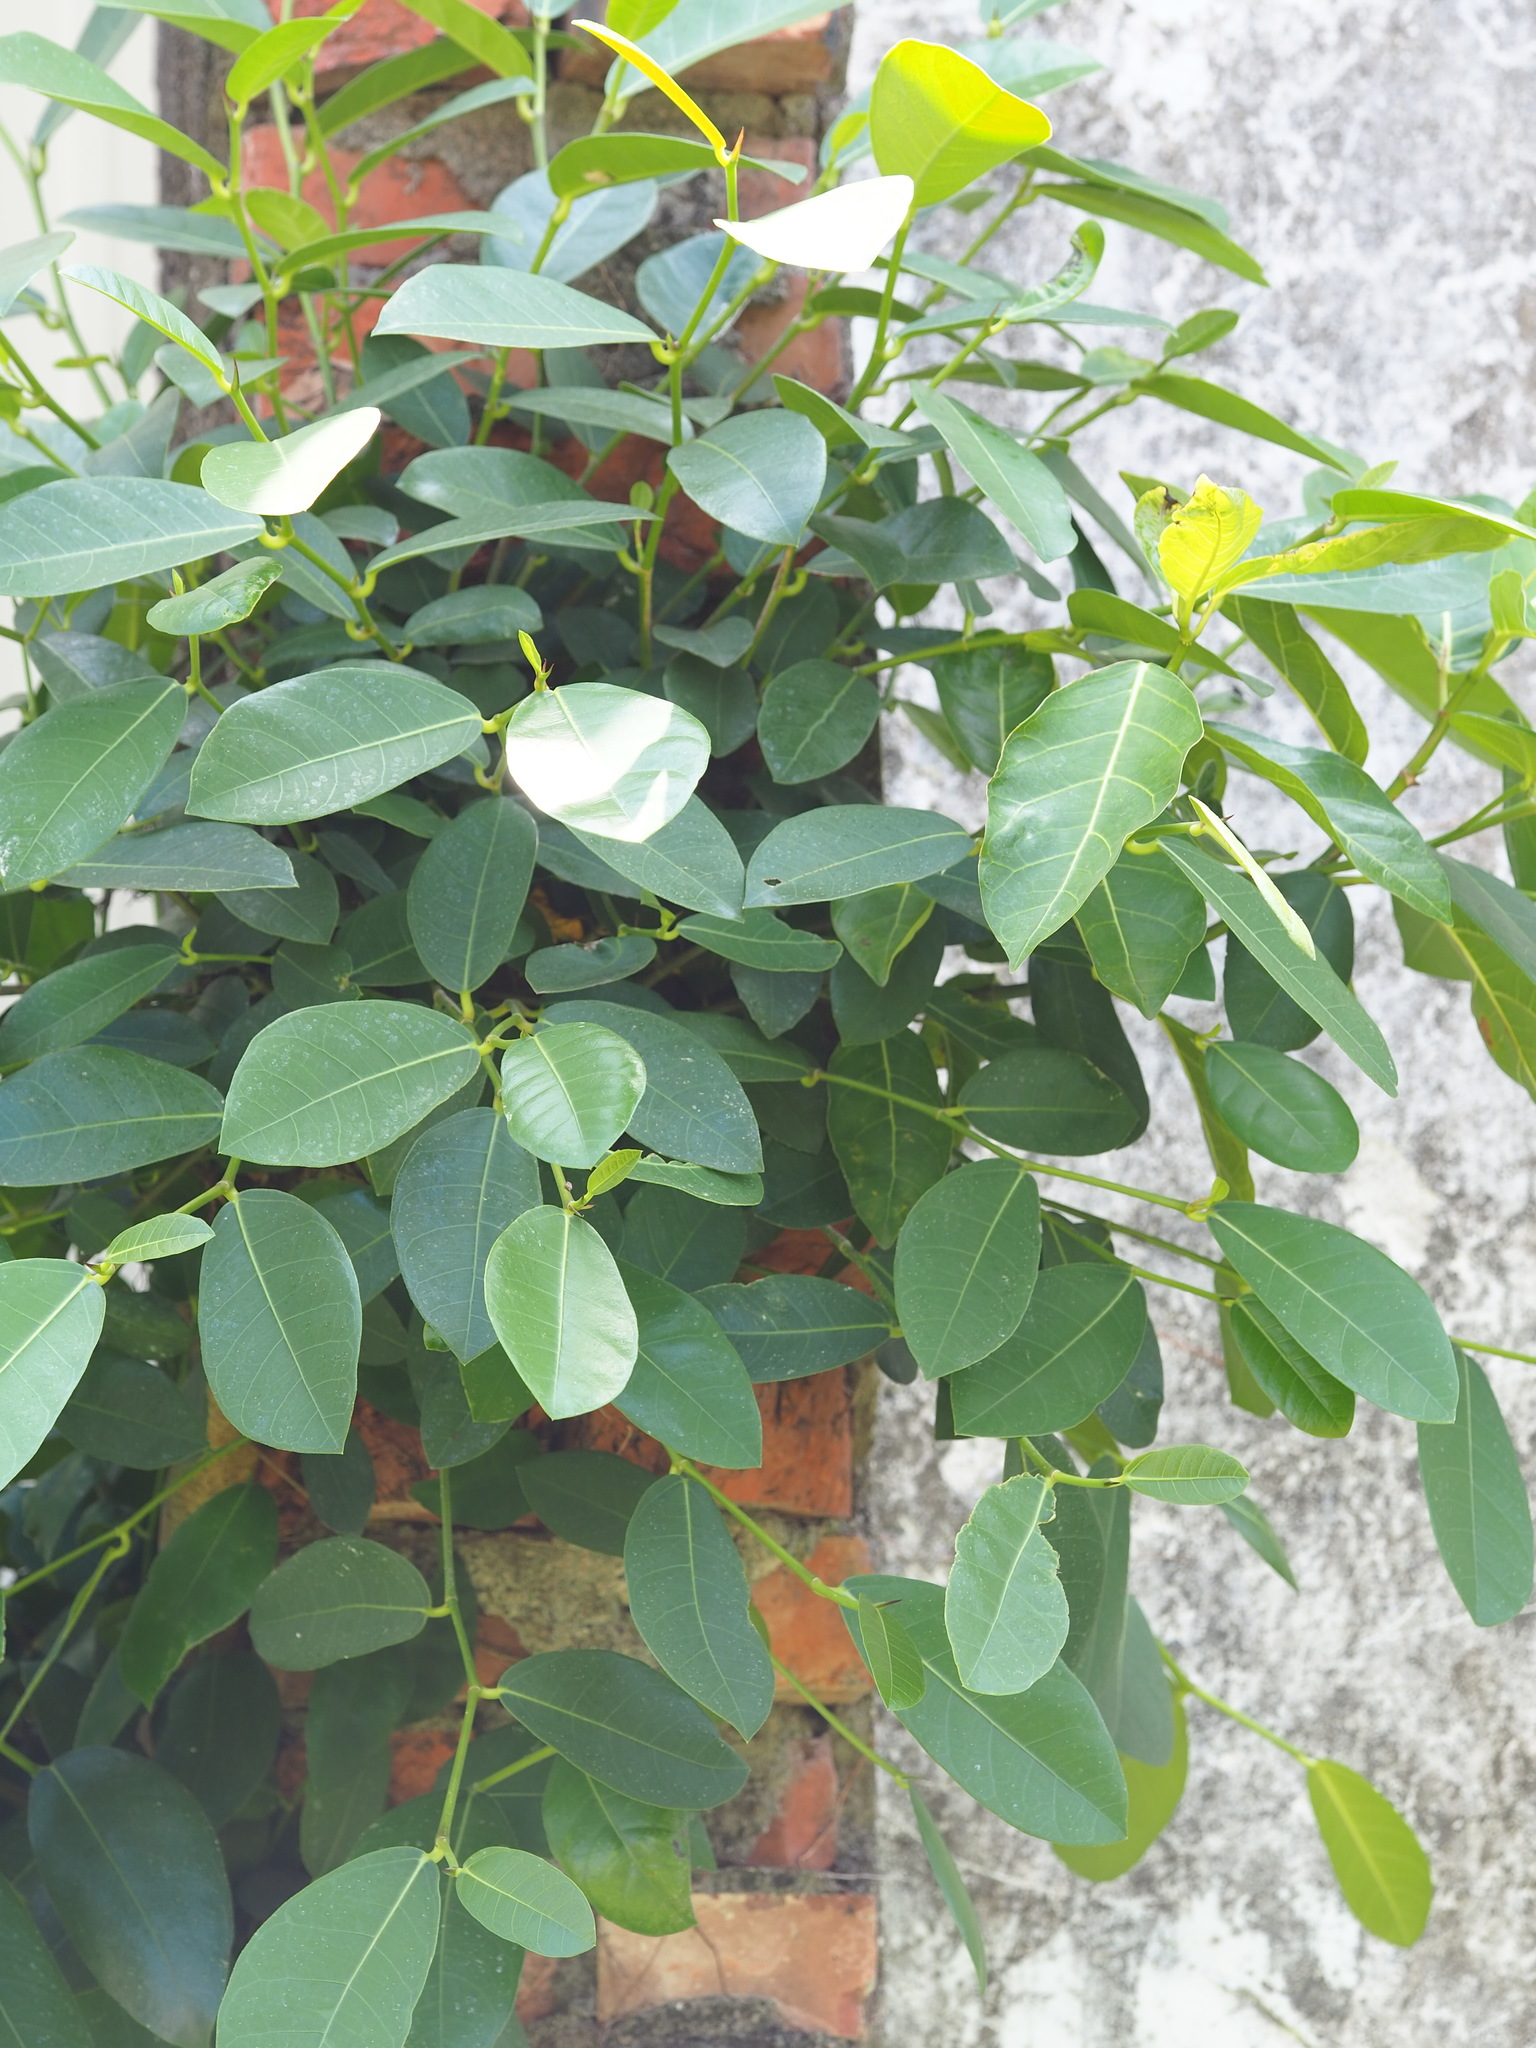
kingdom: Plantae
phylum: Tracheophyta
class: Magnoliopsida
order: Rosales
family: Moraceae
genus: Ficus
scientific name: Ficus tinctoria
